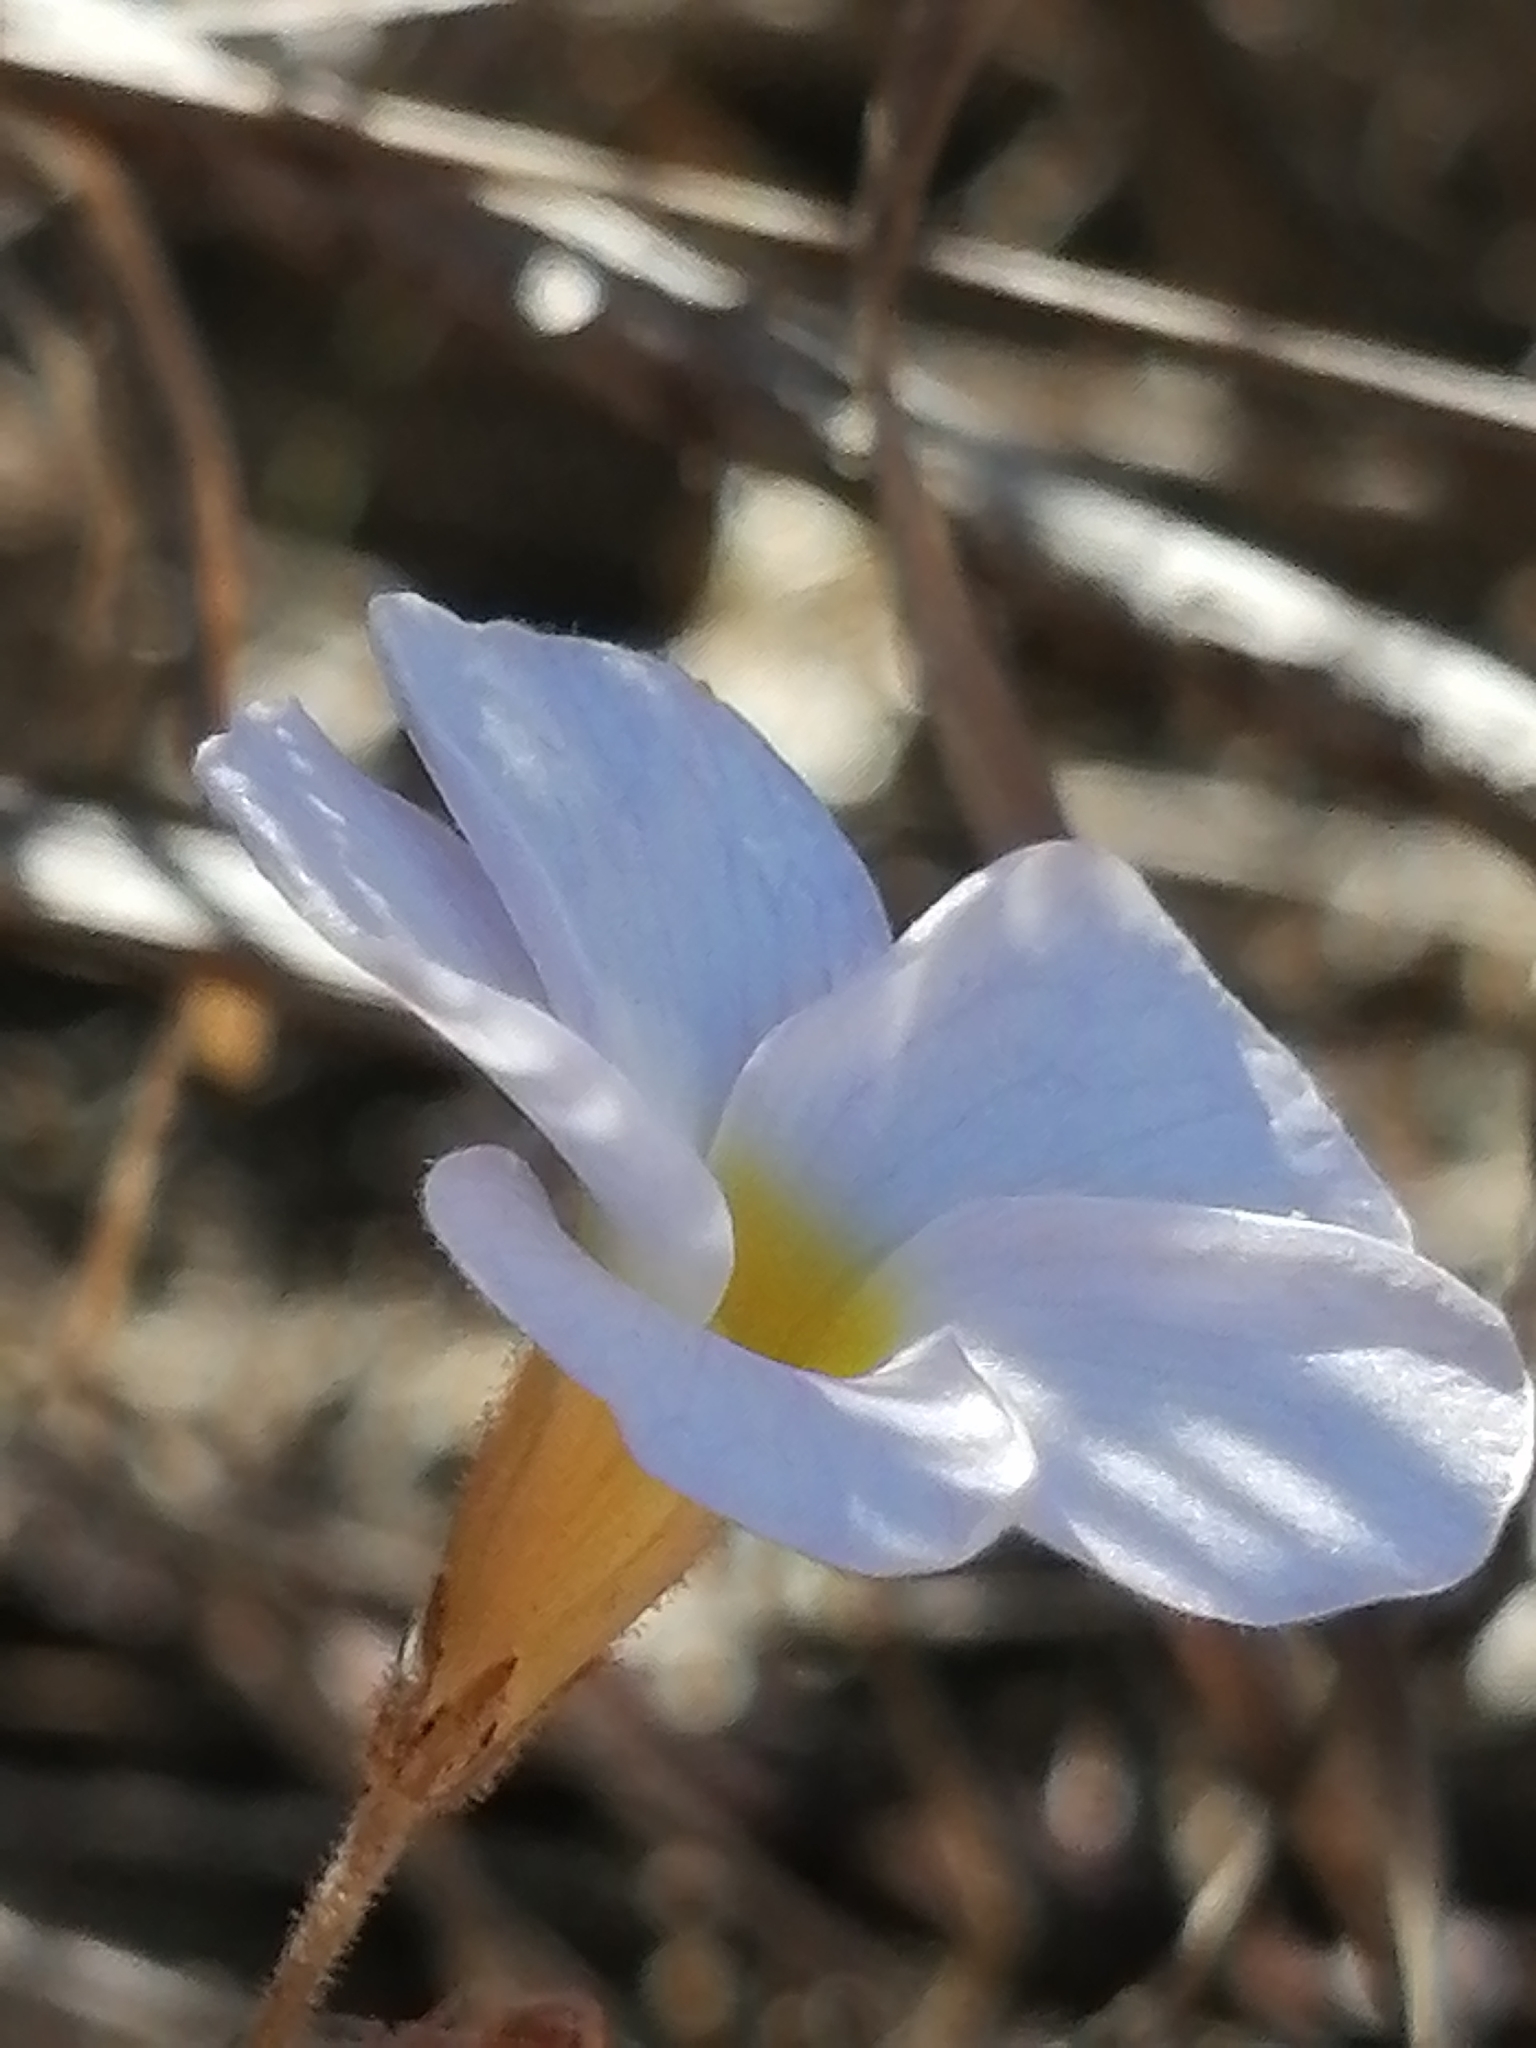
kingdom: Plantae
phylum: Tracheophyta
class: Magnoliopsida
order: Oxalidales
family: Oxalidaceae
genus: Oxalis
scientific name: Oxalis ciliaris
